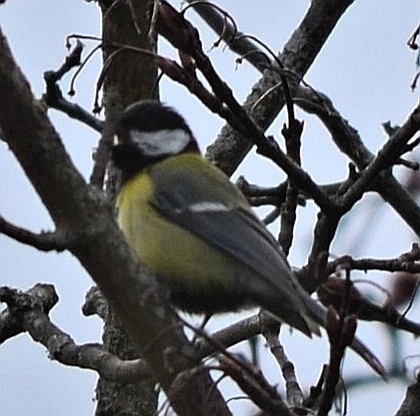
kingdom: Animalia
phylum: Chordata
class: Aves
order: Passeriformes
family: Paridae
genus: Parus
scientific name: Parus major
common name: Great tit
